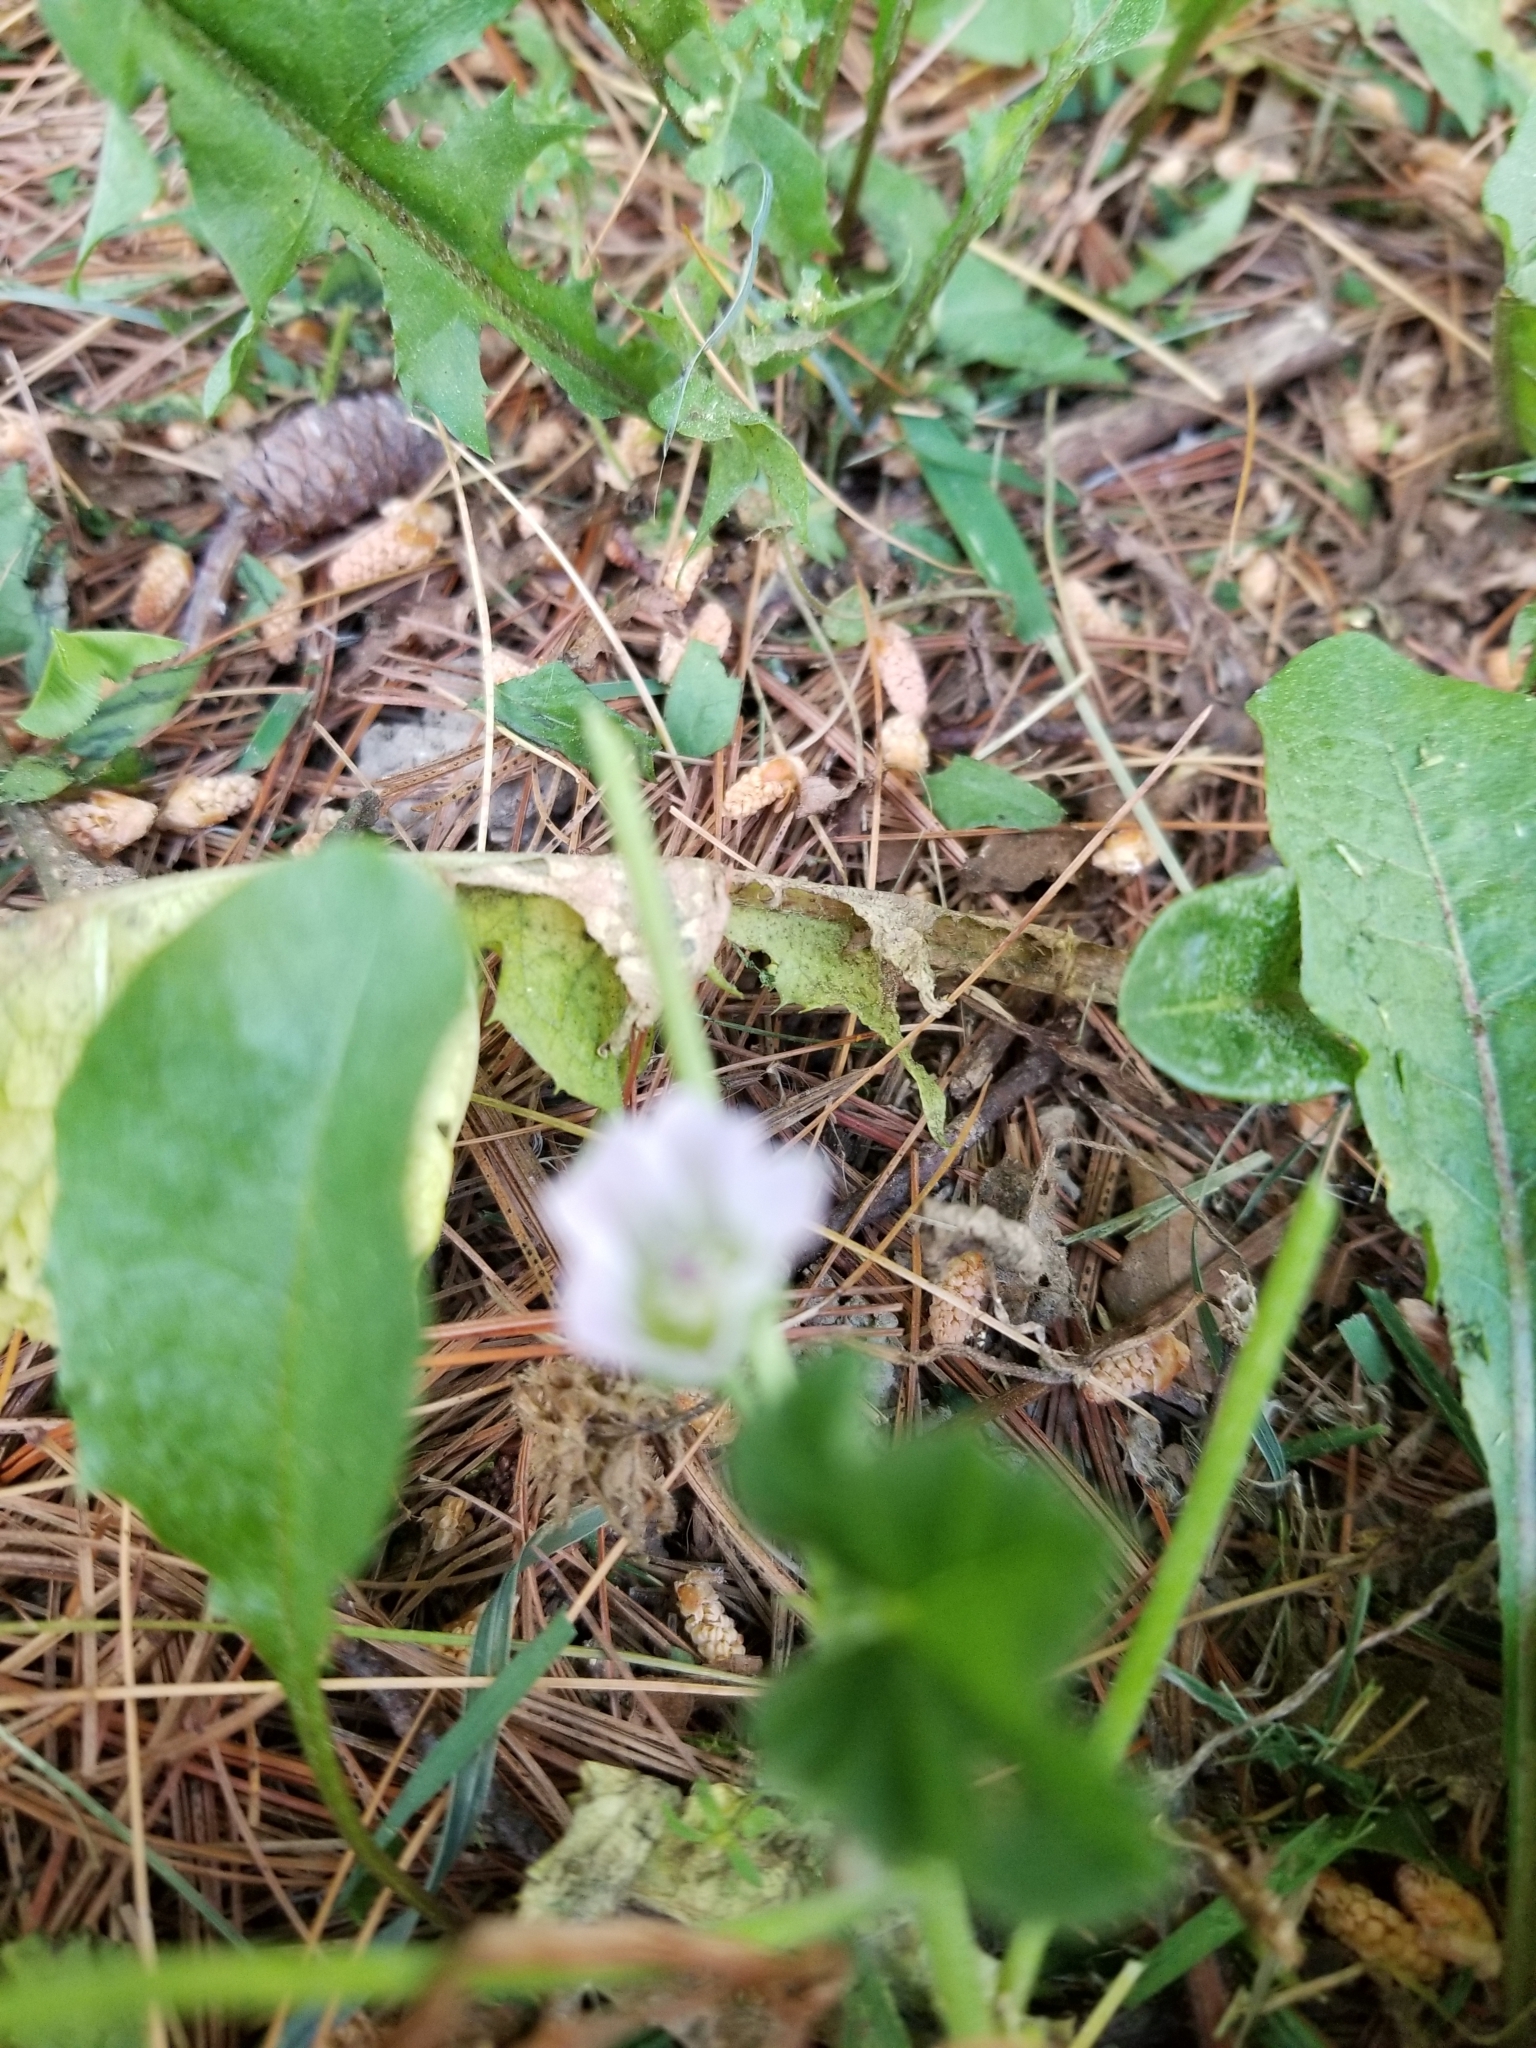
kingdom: Plantae
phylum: Tracheophyta
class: Magnoliopsida
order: Malvales
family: Malvaceae
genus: Malva
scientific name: Malva neglecta
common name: Common mallow
